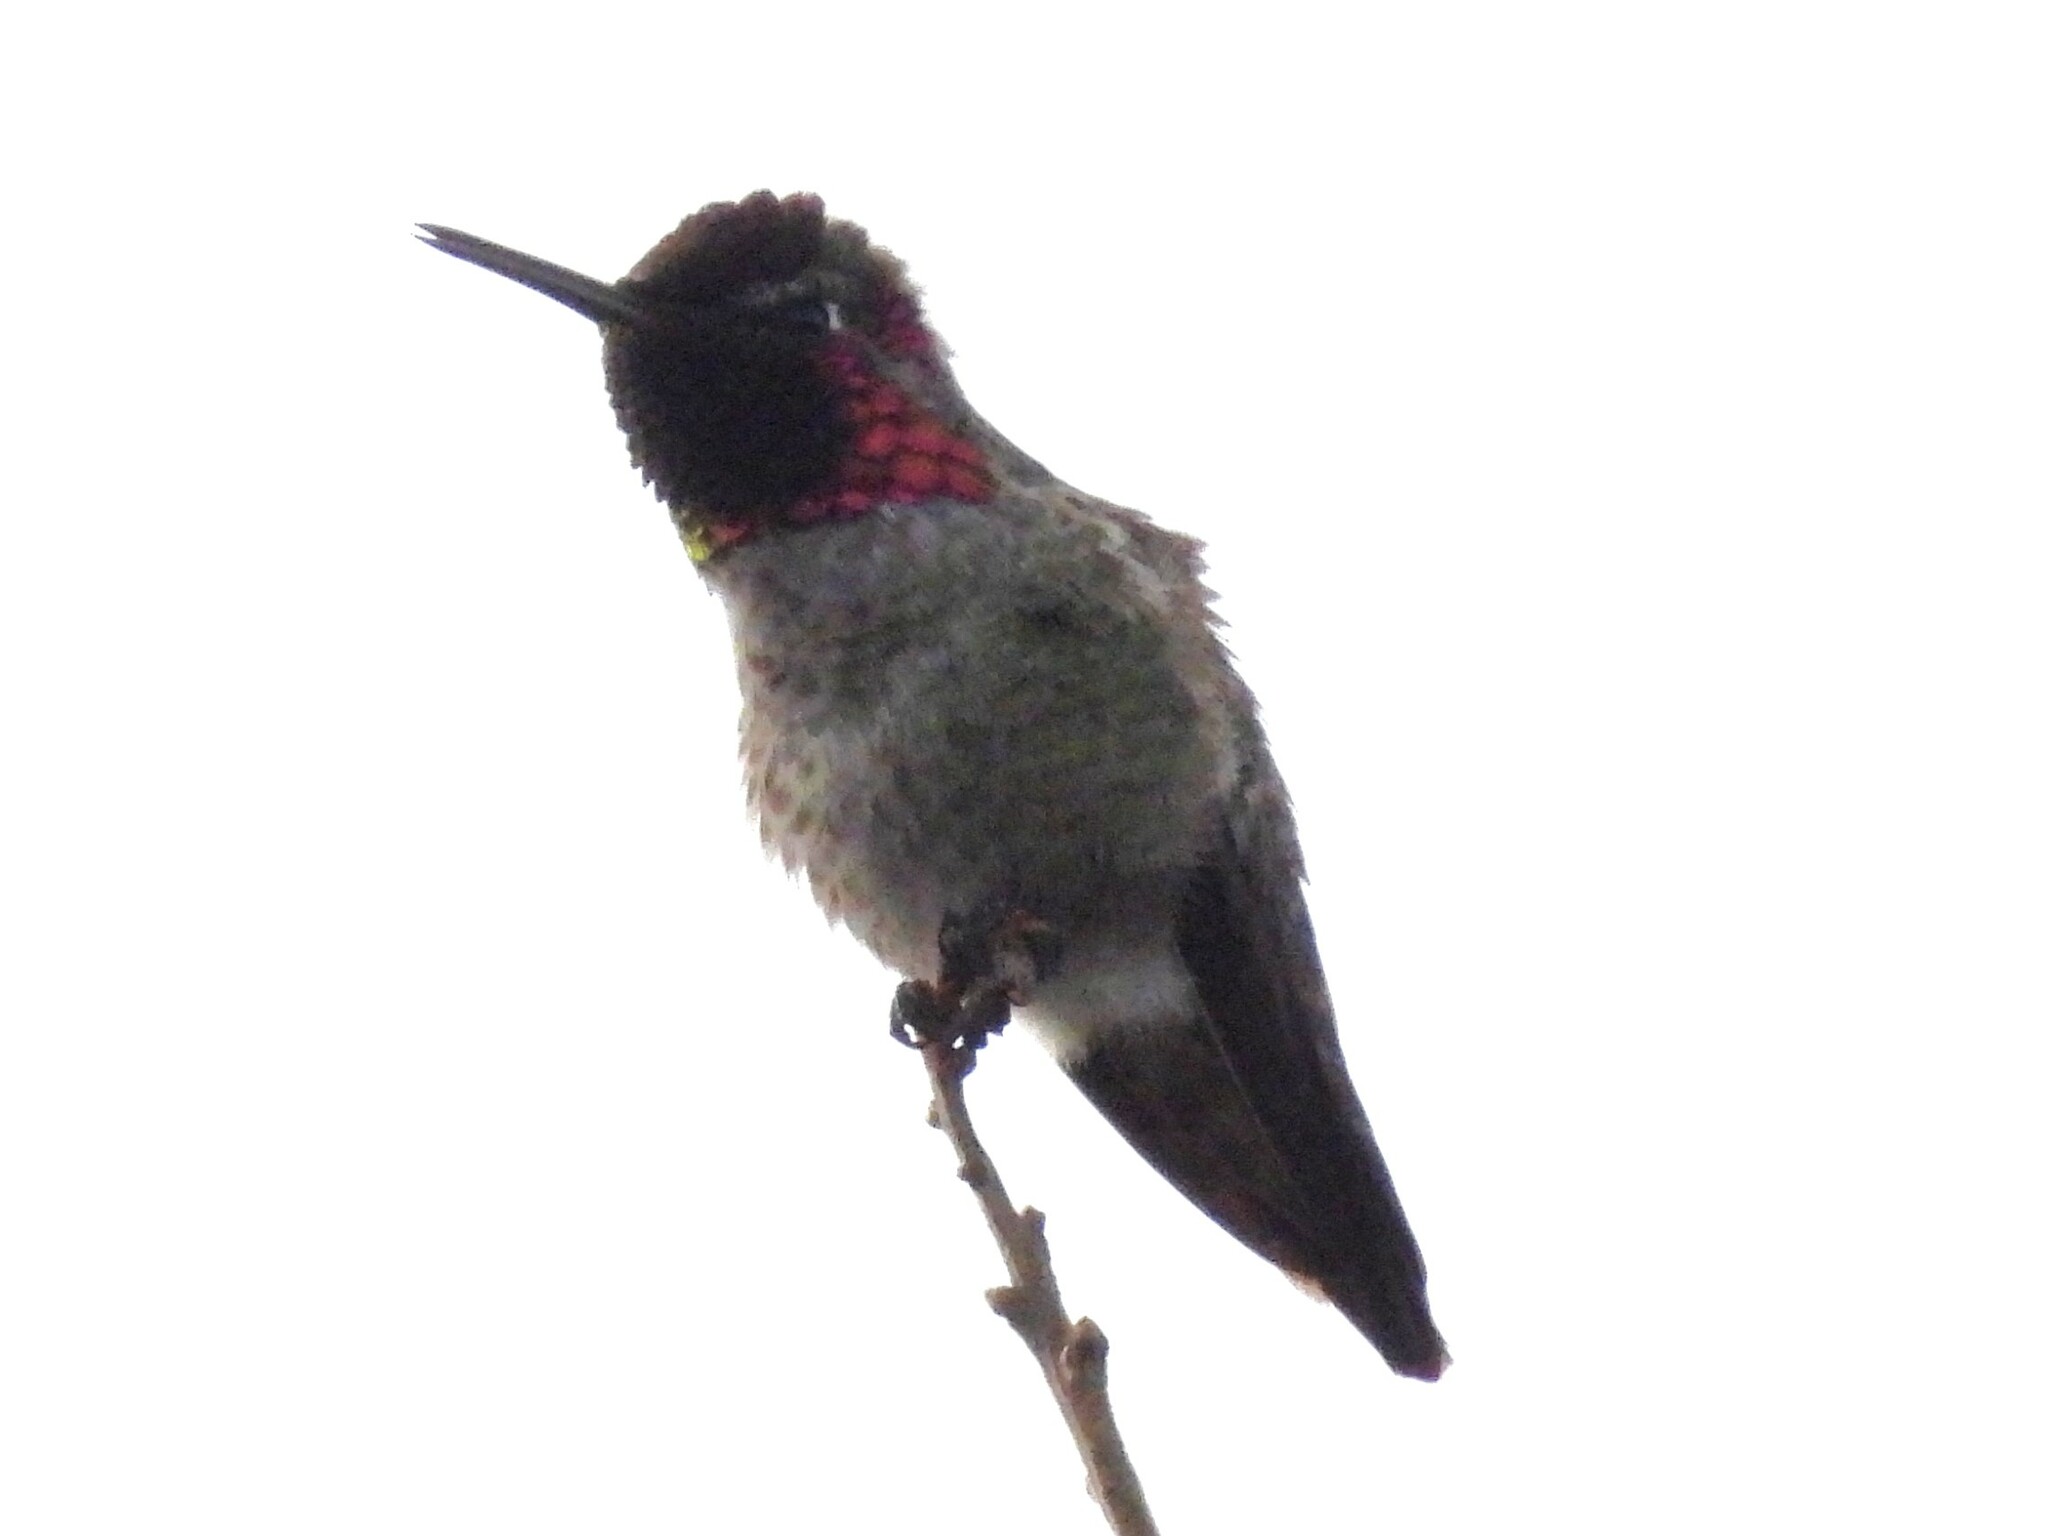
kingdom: Animalia
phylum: Chordata
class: Aves
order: Apodiformes
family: Trochilidae
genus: Calypte
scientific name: Calypte anna
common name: Anna's hummingbird
